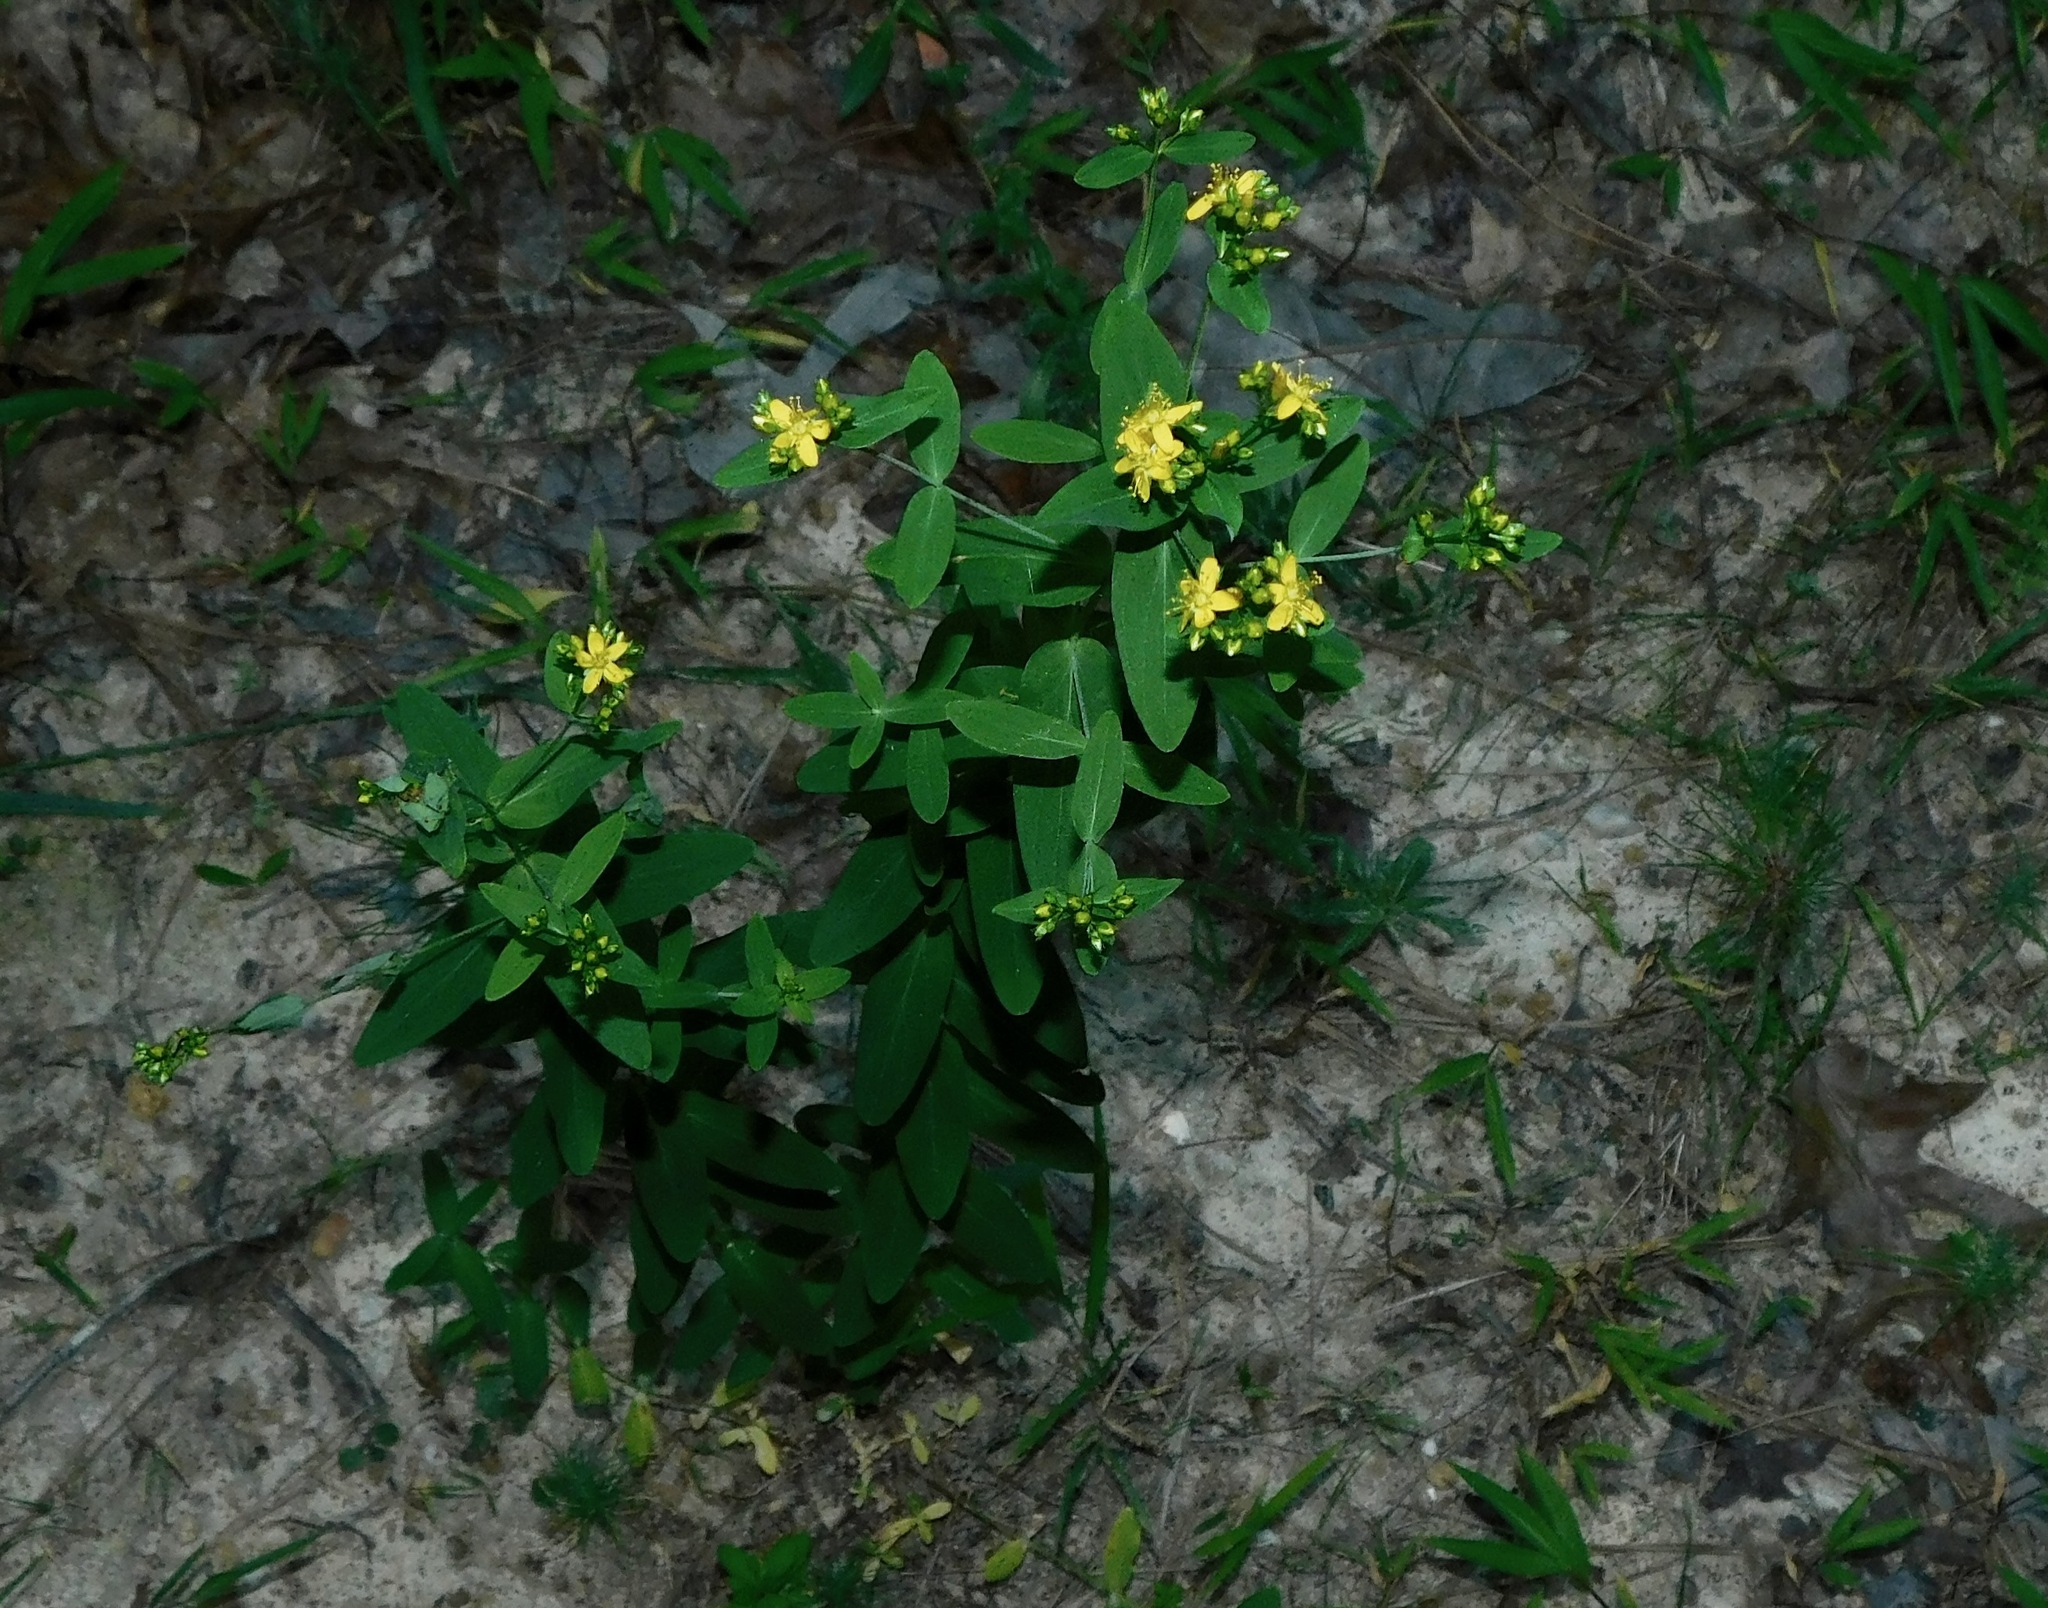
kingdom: Plantae
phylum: Tracheophyta
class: Magnoliopsida
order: Malpighiales
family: Hypericaceae
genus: Hypericum
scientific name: Hypericum punctatum
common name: Spotted st. john's-wort
